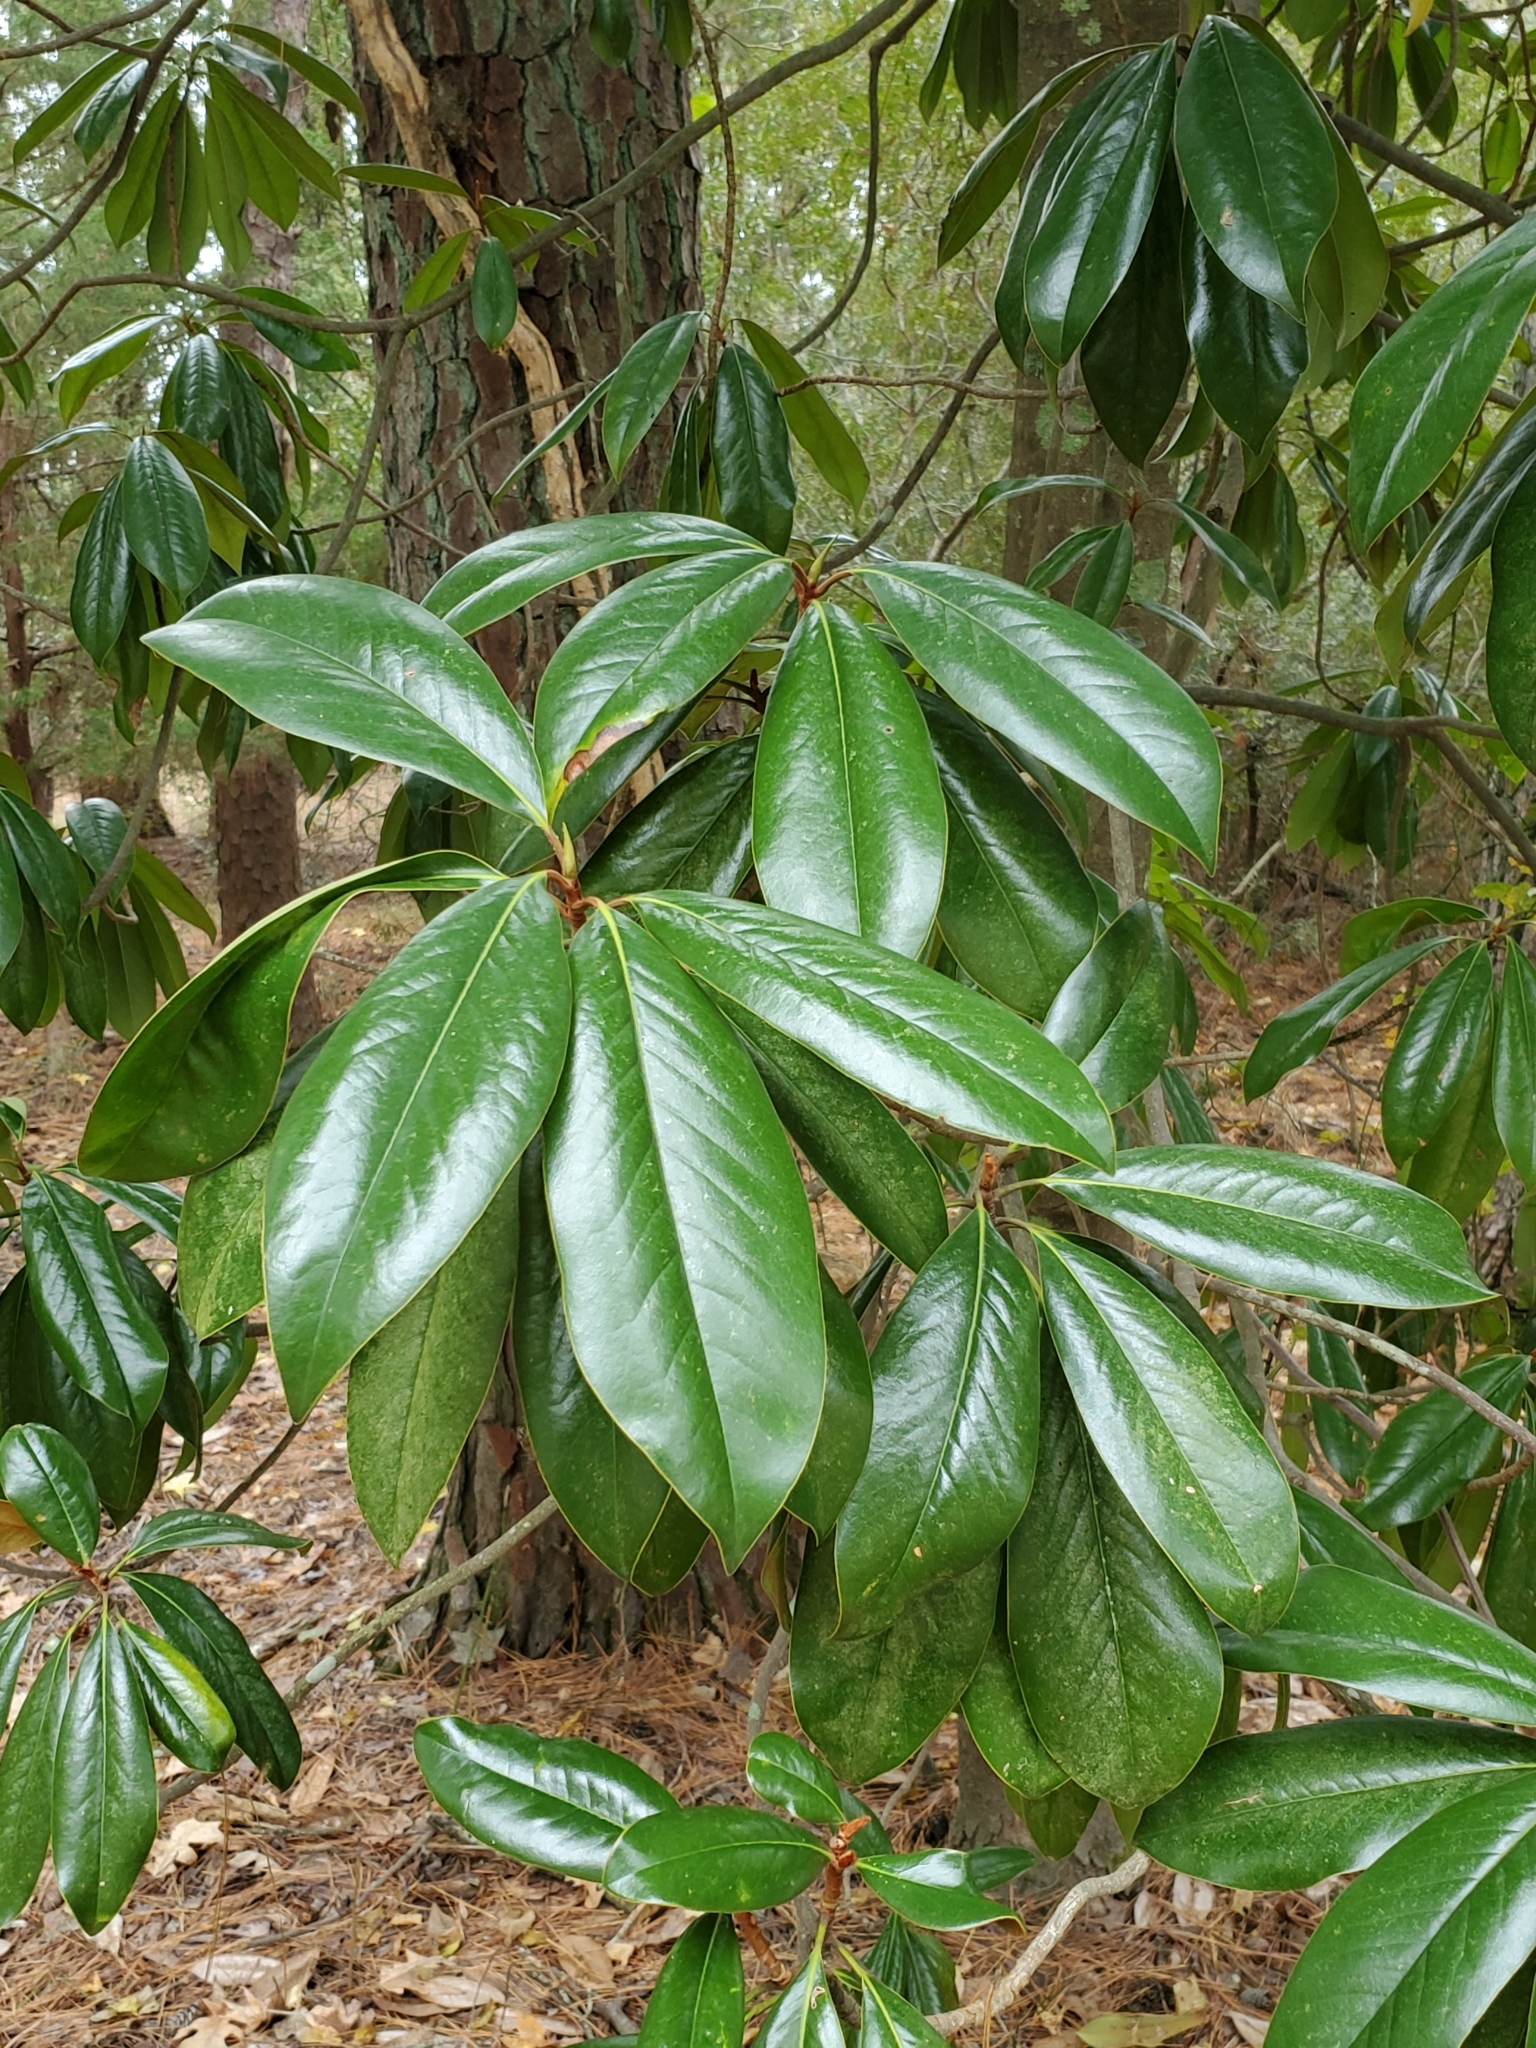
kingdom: Plantae
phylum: Tracheophyta
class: Magnoliopsida
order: Magnoliales
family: Magnoliaceae
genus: Magnolia
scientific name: Magnolia grandiflora
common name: Southern magnolia
